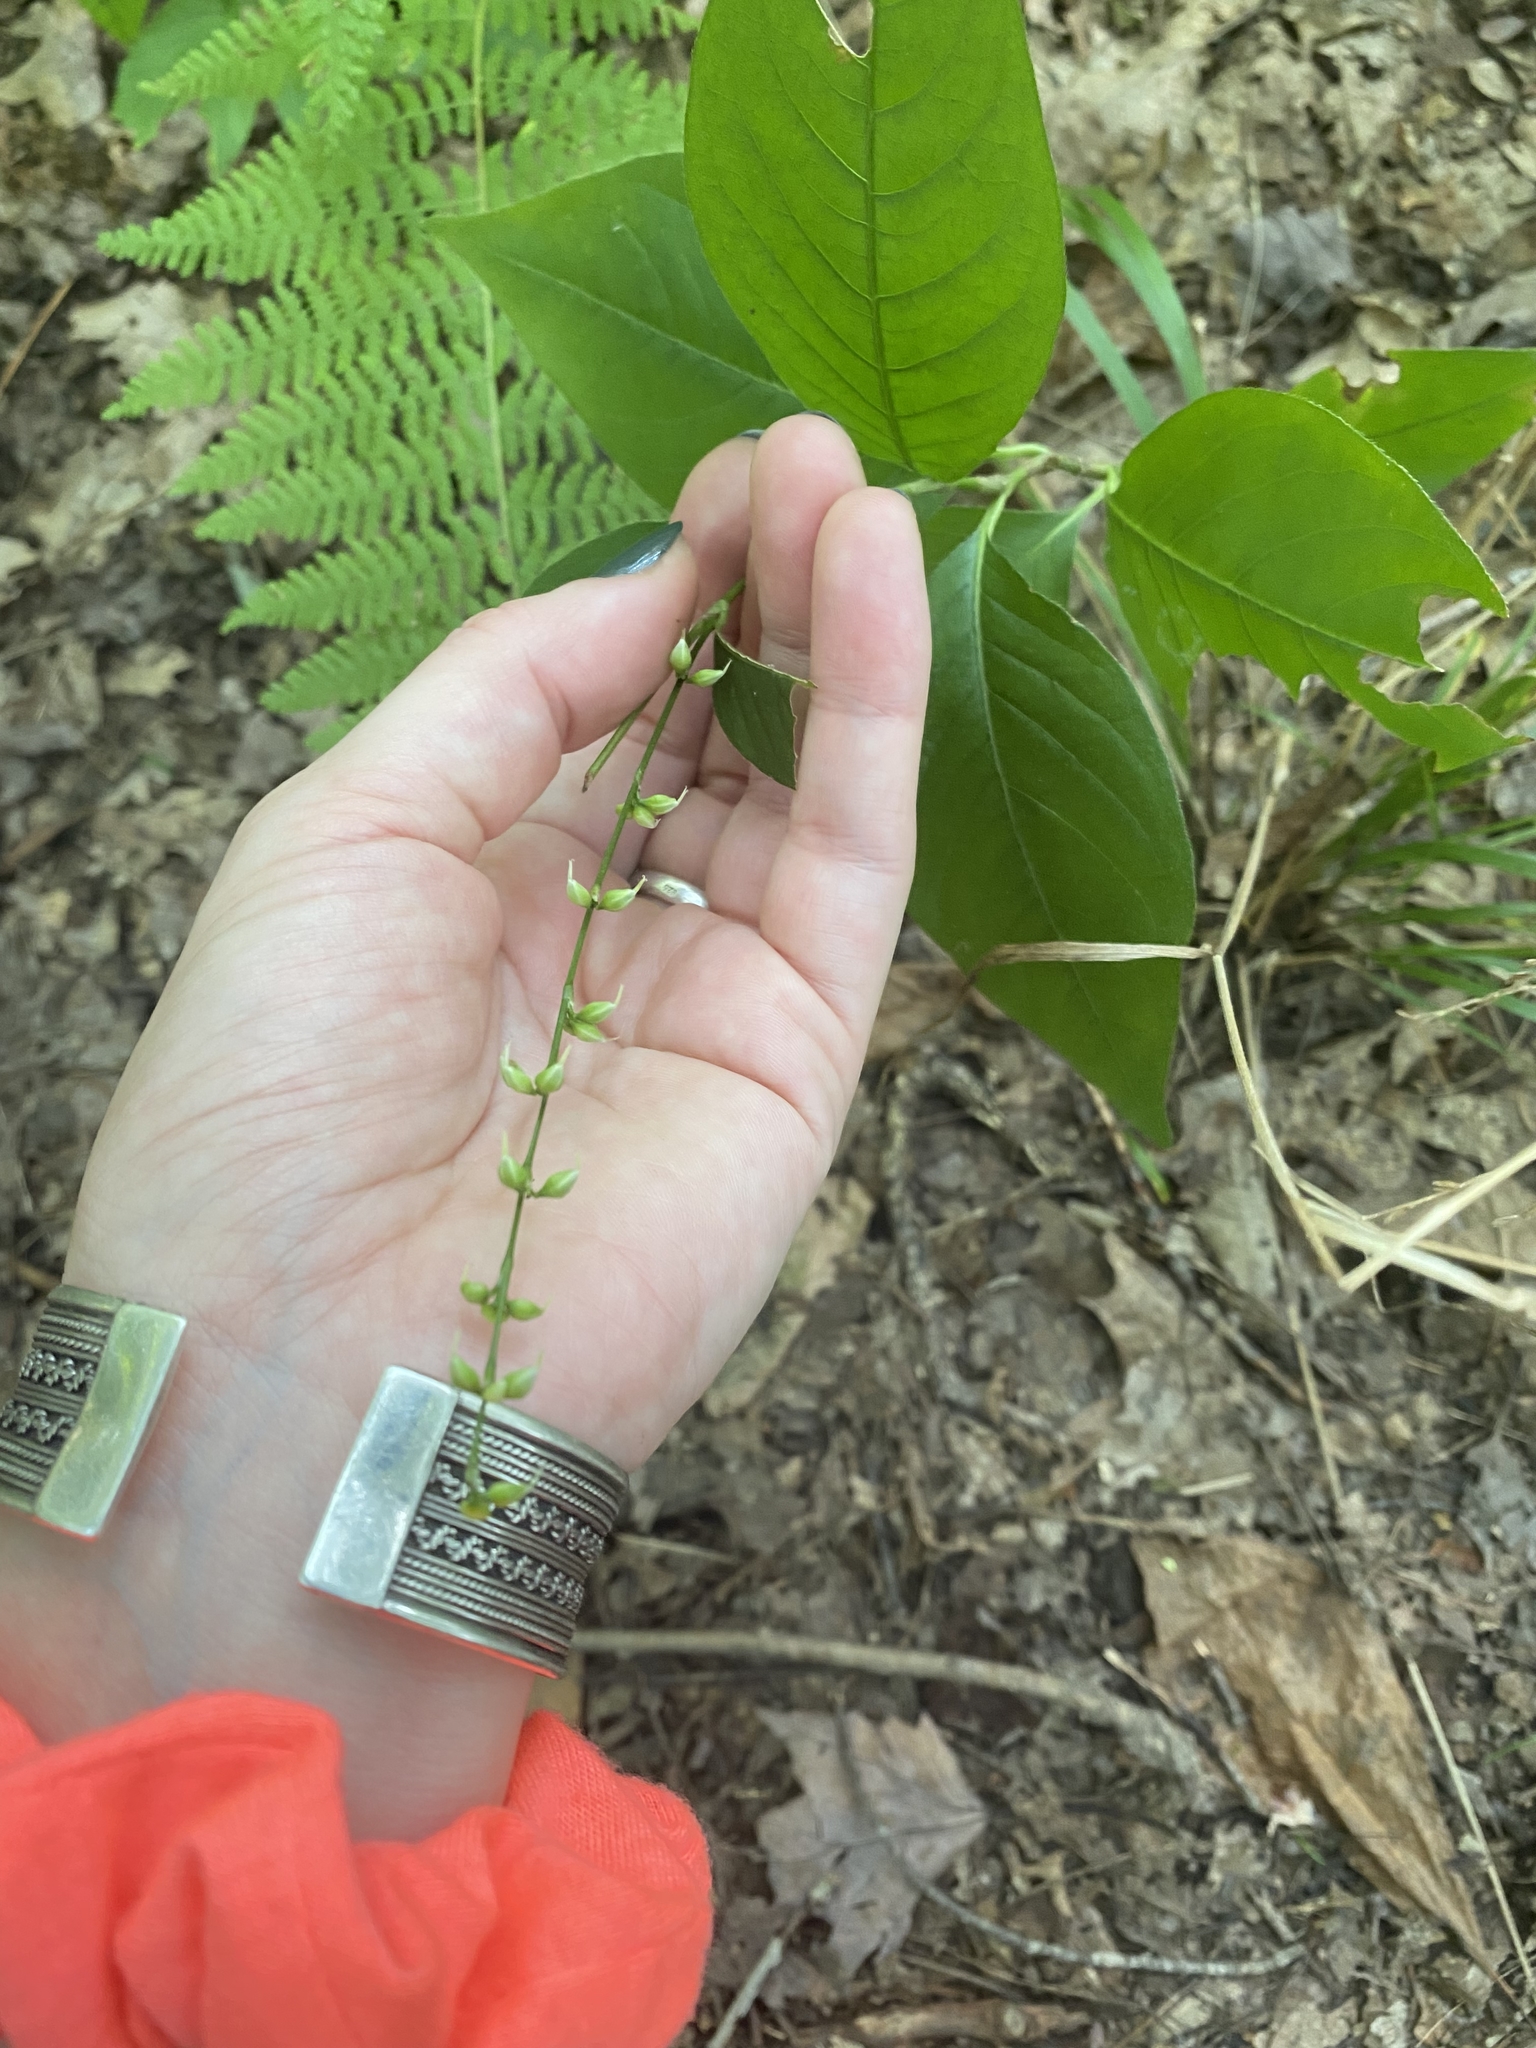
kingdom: Plantae
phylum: Tracheophyta
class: Magnoliopsida
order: Caryophyllales
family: Polygonaceae
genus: Persicaria
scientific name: Persicaria virginiana
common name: Jumpseed
